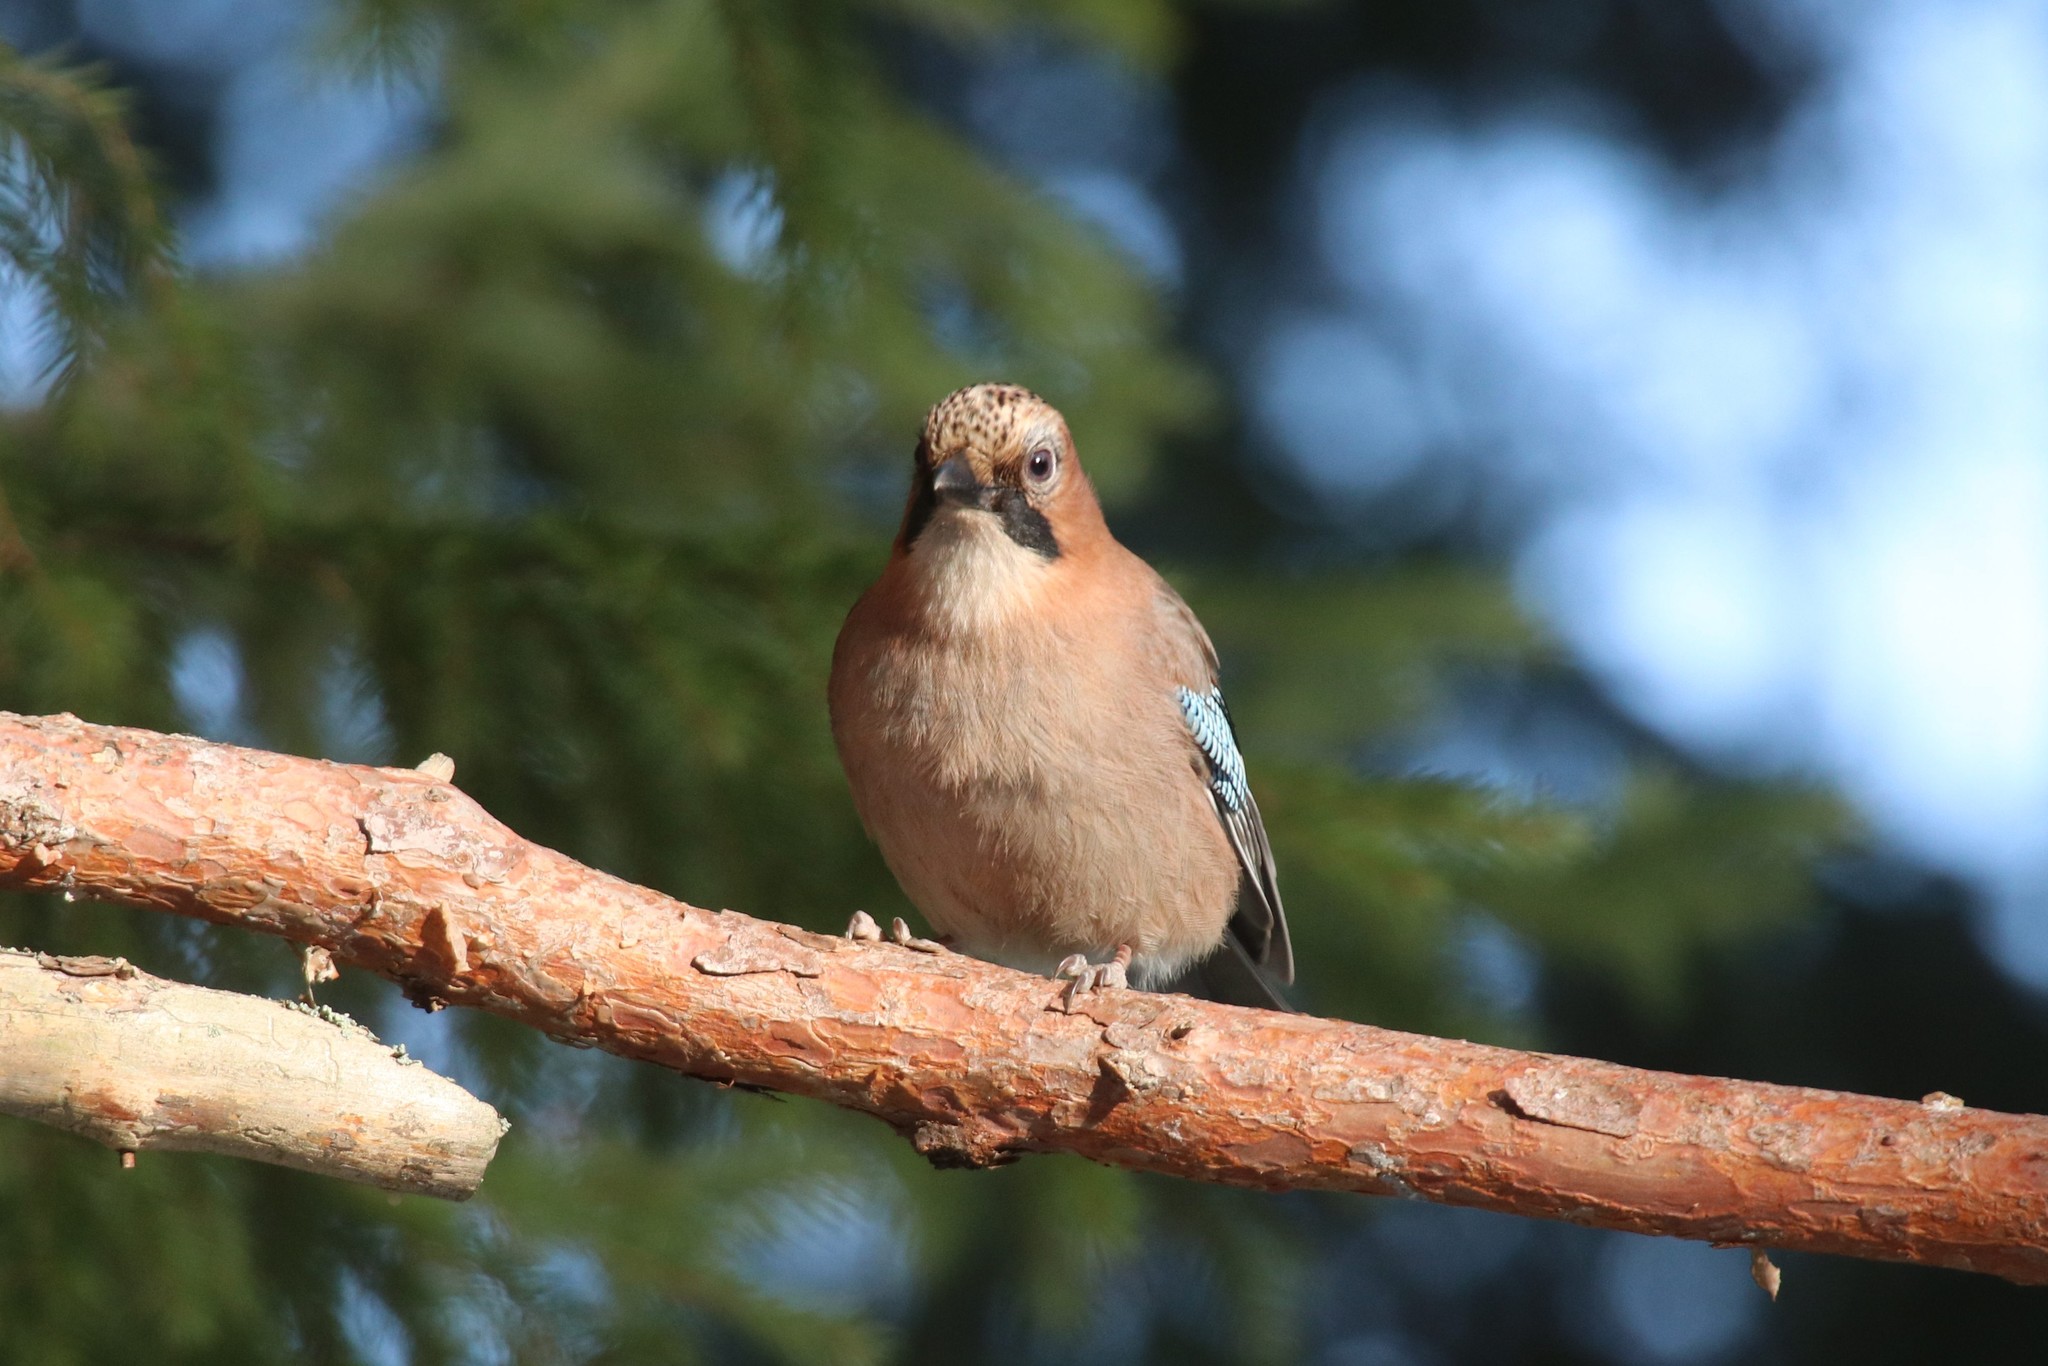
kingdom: Animalia
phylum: Chordata
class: Aves
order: Passeriformes
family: Corvidae
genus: Garrulus
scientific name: Garrulus glandarius
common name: Eurasian jay
